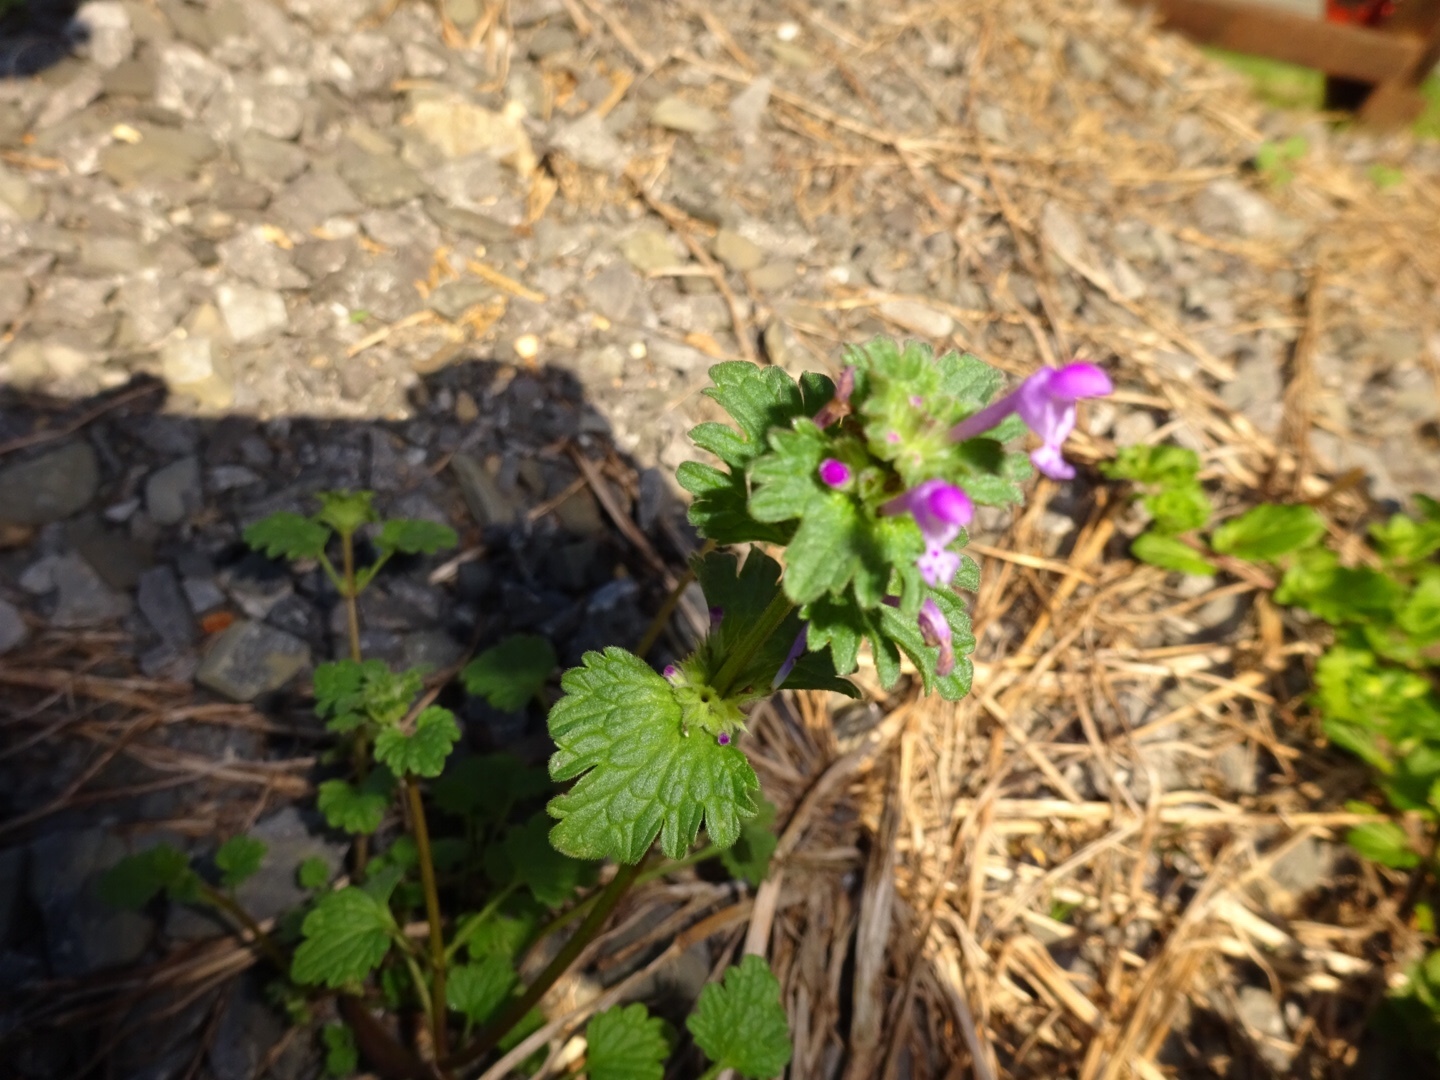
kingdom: Plantae
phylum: Tracheophyta
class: Magnoliopsida
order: Lamiales
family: Lamiaceae
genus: Lamium
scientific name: Lamium amplexicaule
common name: Henbit dead-nettle
